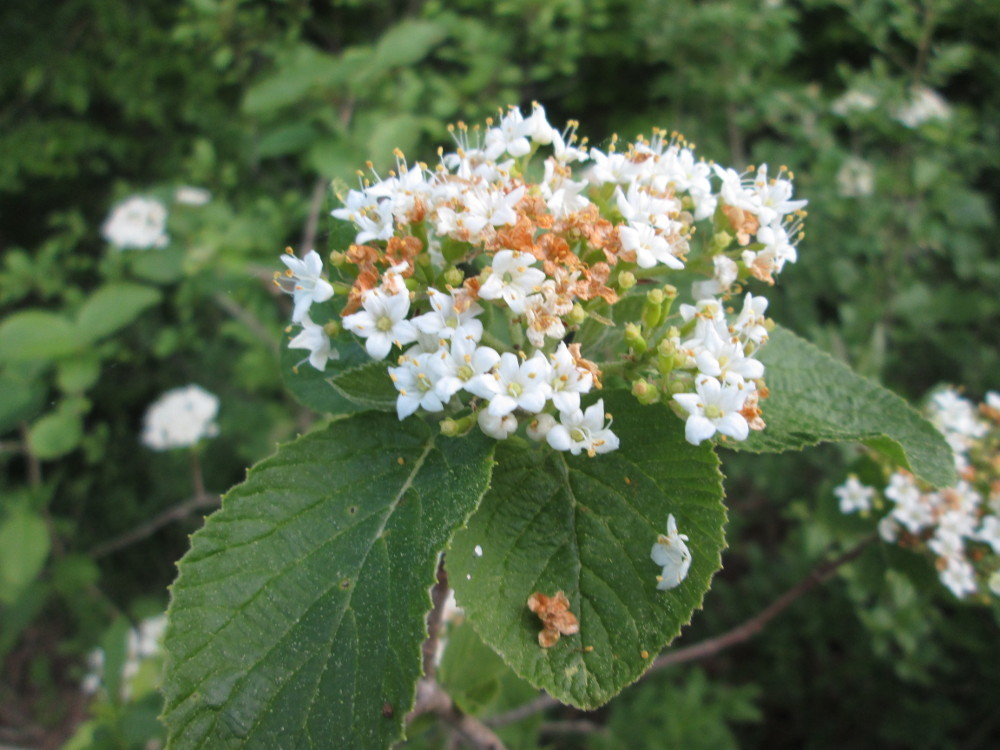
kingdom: Plantae
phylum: Tracheophyta
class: Magnoliopsida
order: Dipsacales
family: Viburnaceae
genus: Viburnum
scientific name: Viburnum lantana
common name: Wayfaring tree
